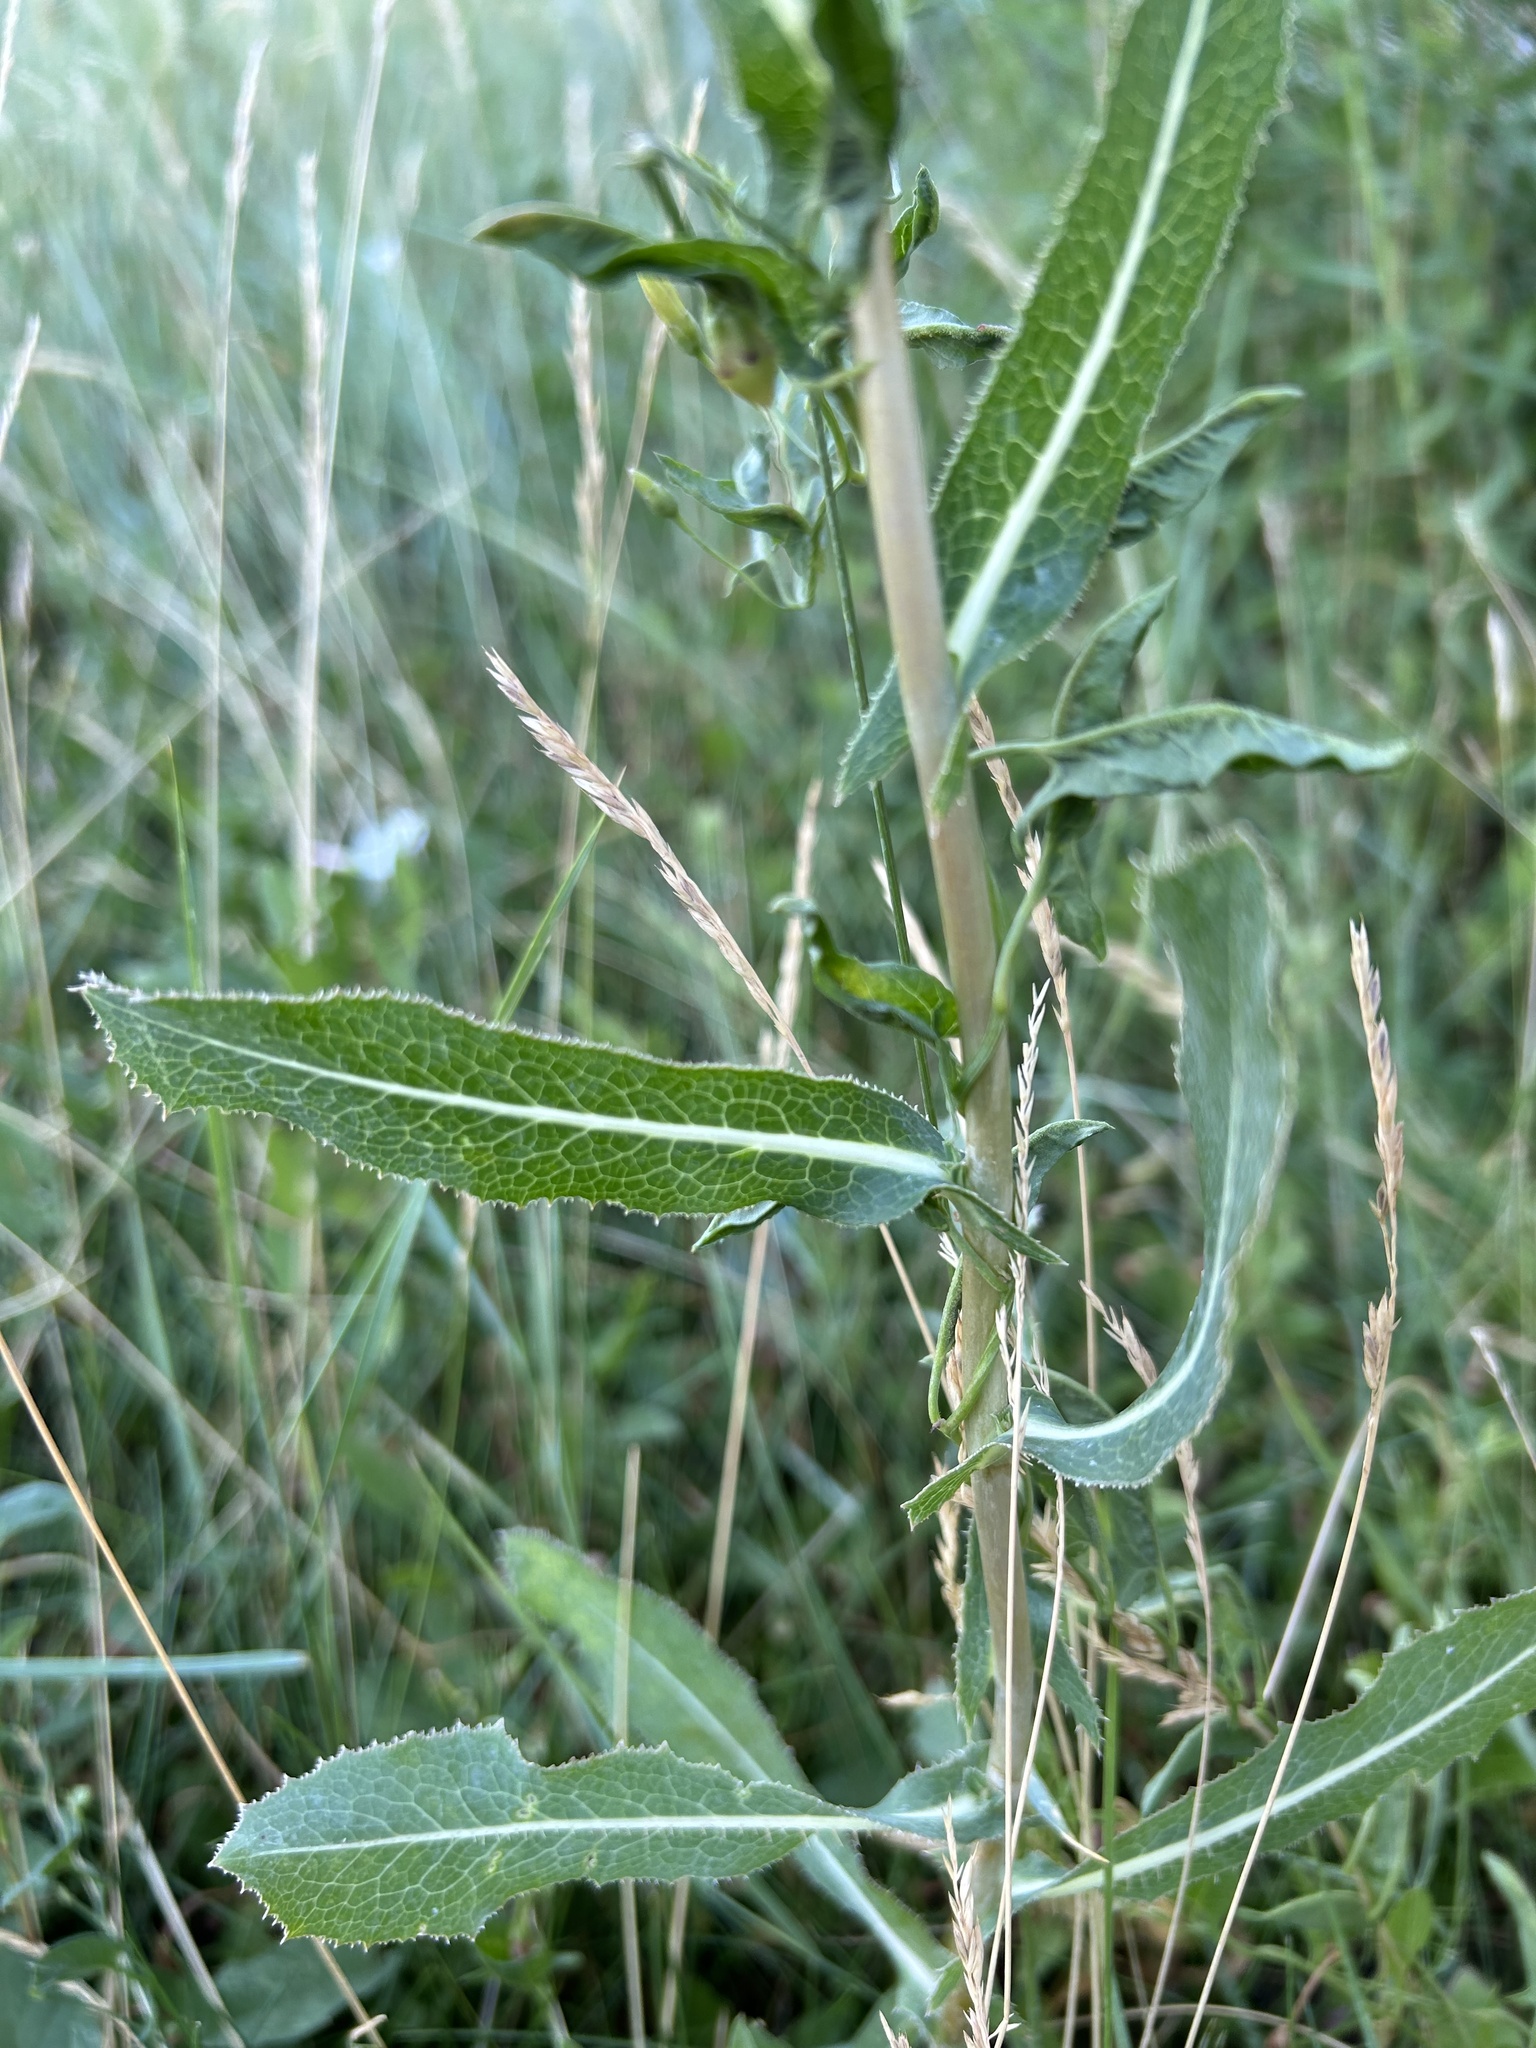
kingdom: Plantae
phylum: Tracheophyta
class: Magnoliopsida
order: Asterales
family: Asteraceae
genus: Lactuca
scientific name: Lactuca serriola
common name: Prickly lettuce
